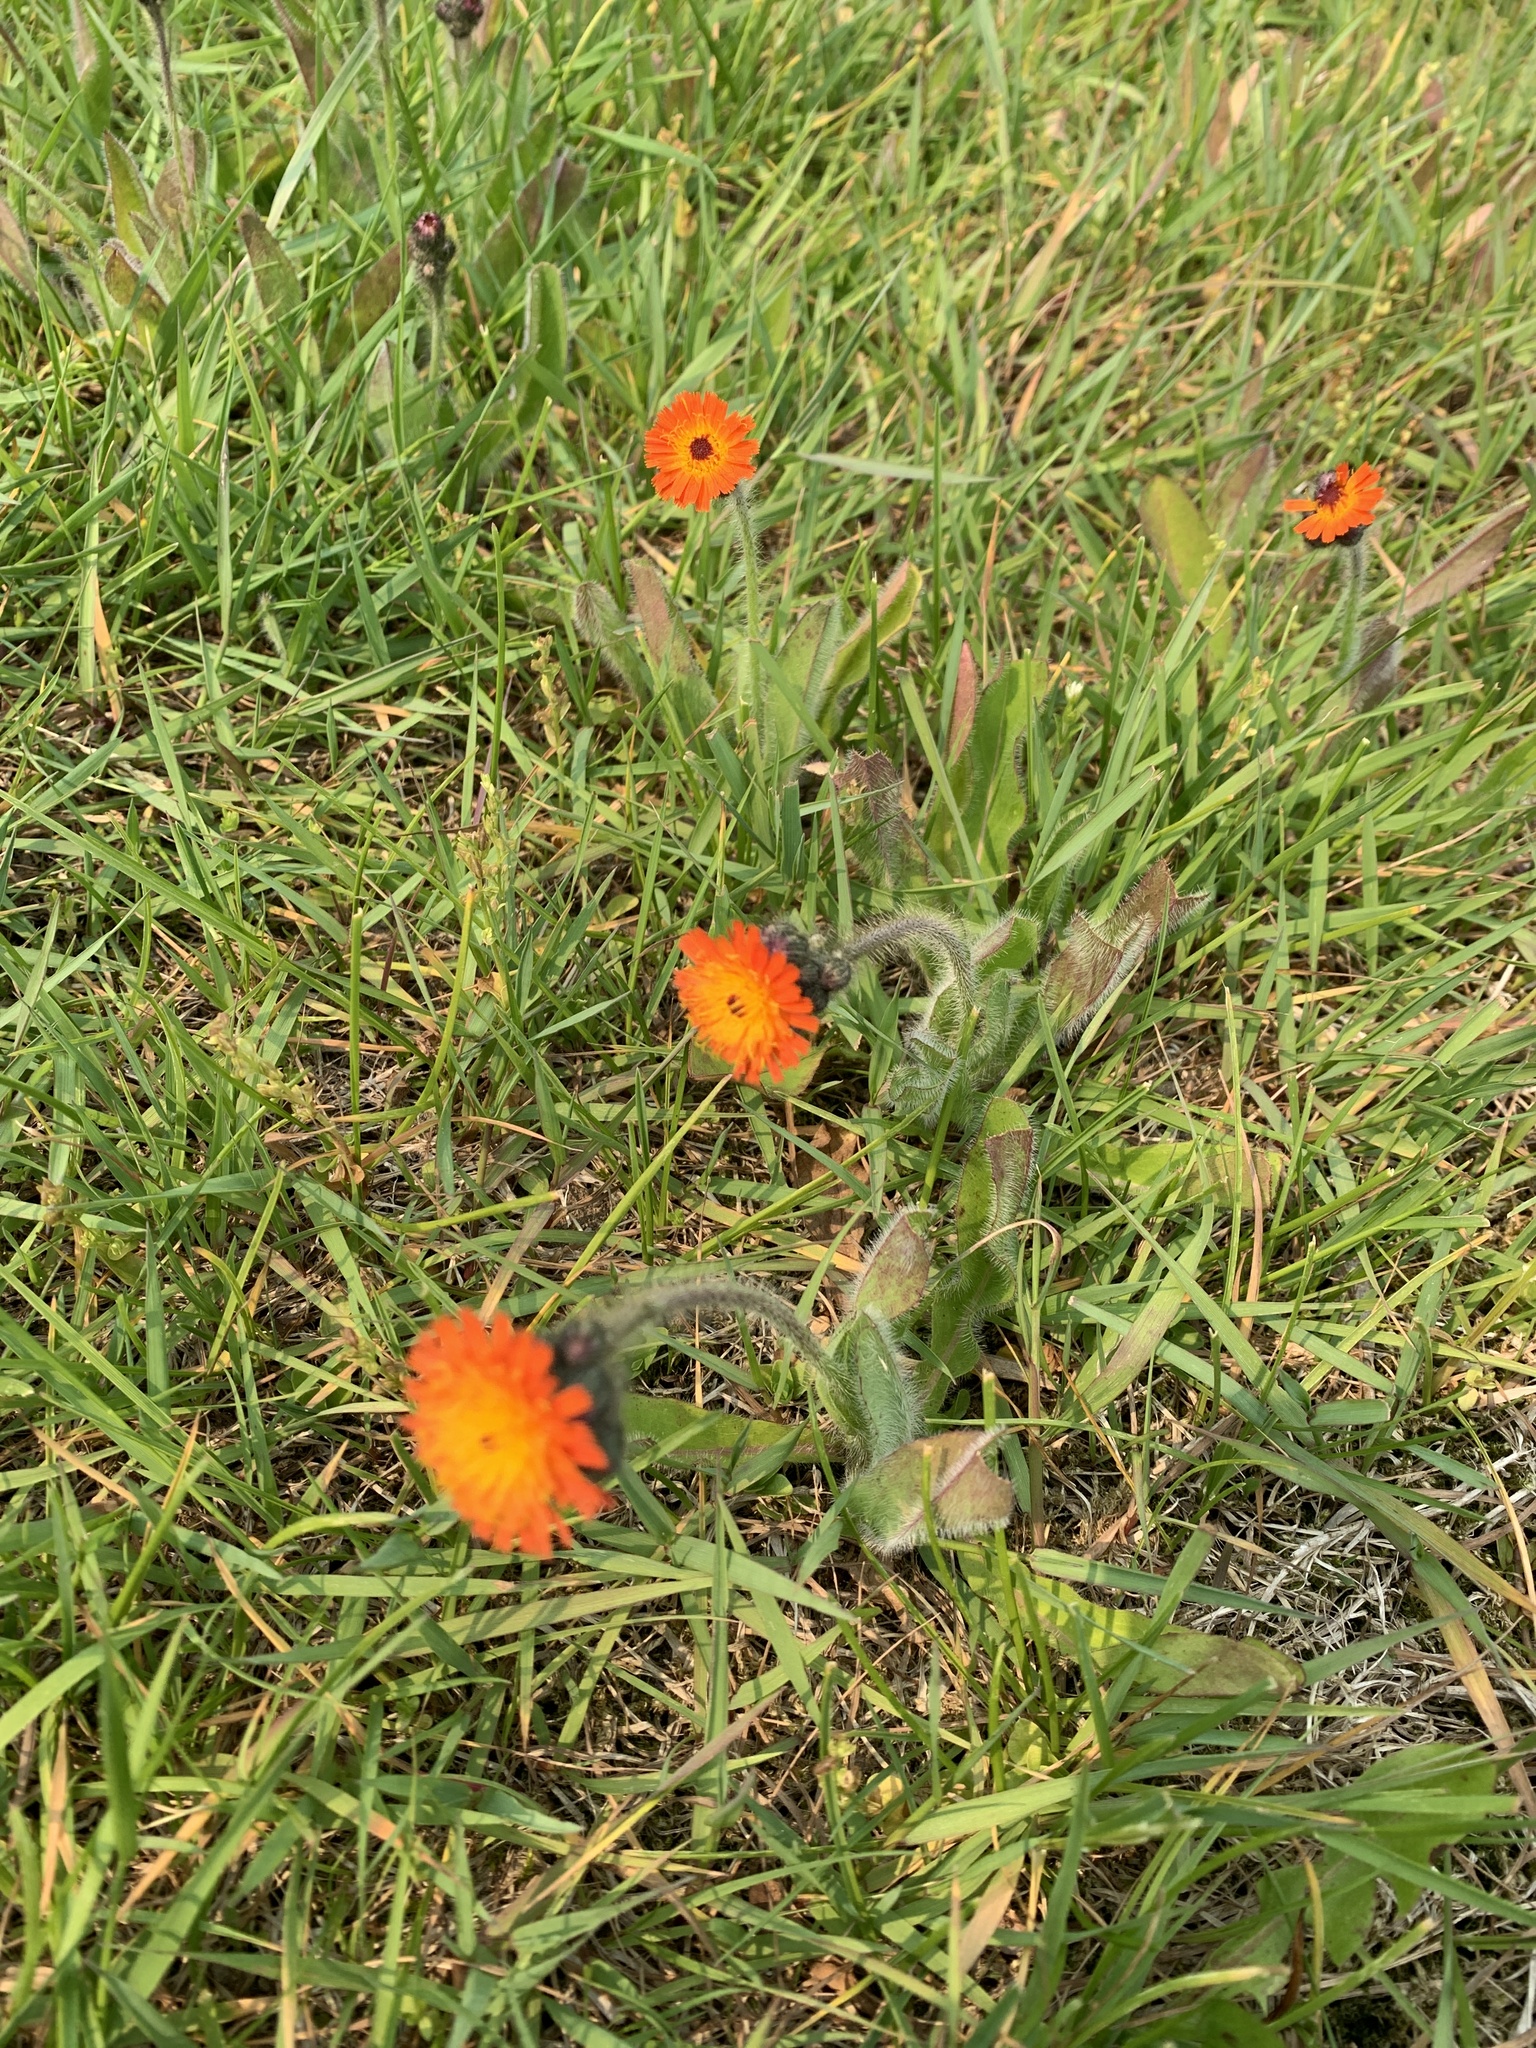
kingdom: Plantae
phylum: Tracheophyta
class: Magnoliopsida
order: Asterales
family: Asteraceae
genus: Pilosella
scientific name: Pilosella aurantiaca
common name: Fox-and-cubs
